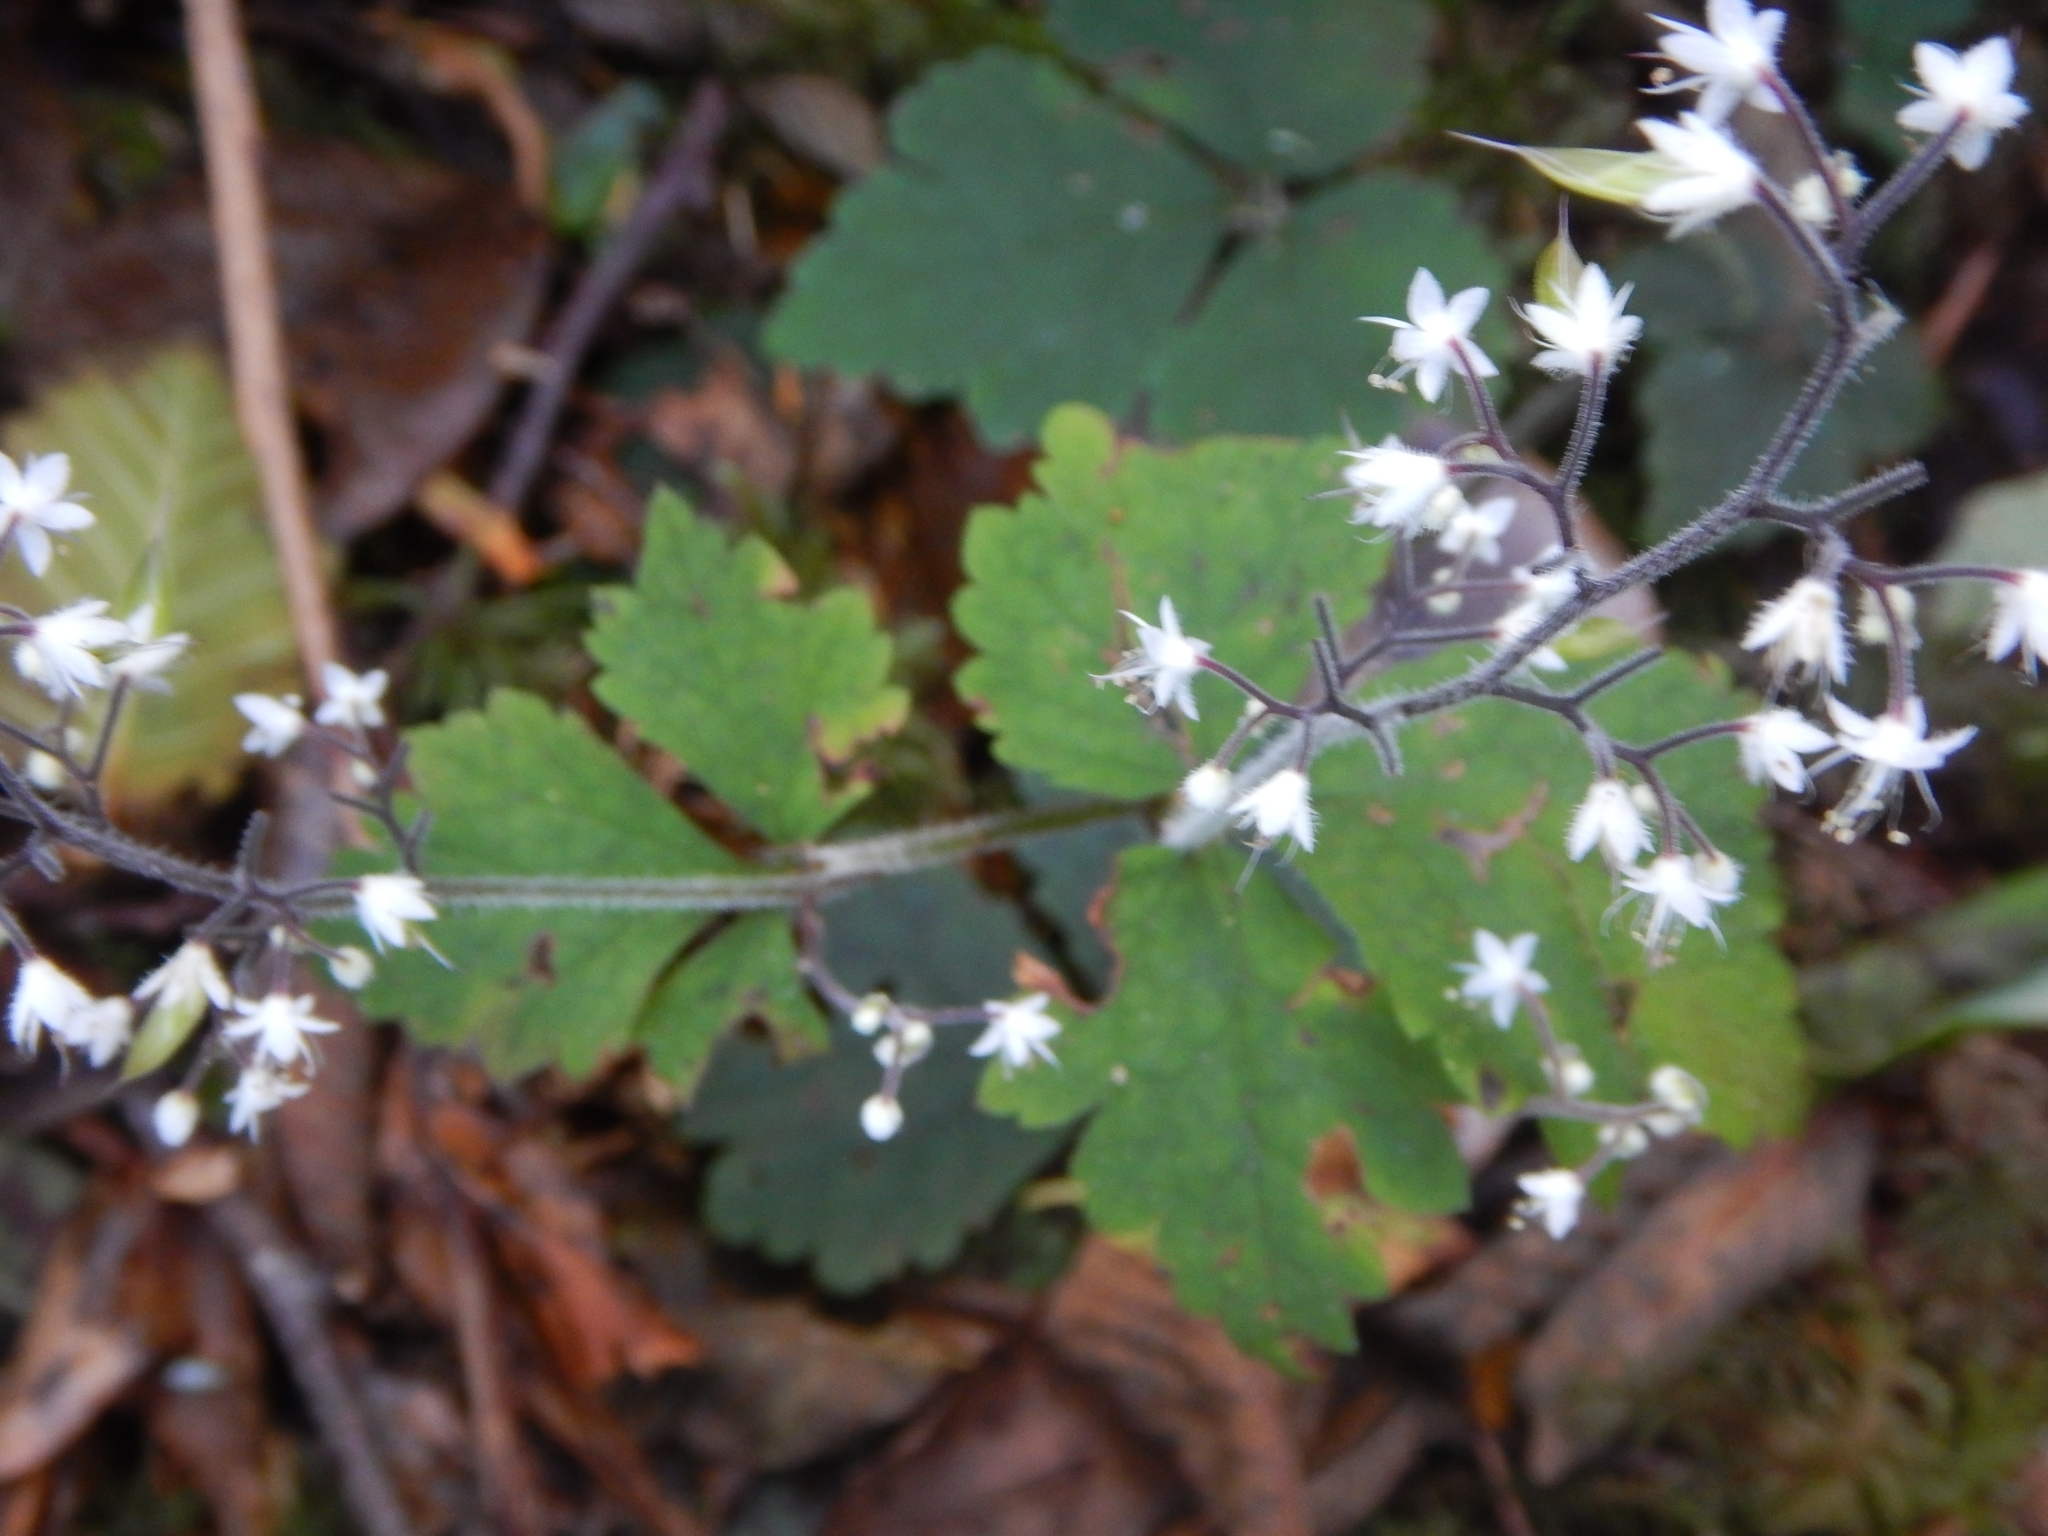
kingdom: Plantae
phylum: Tracheophyta
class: Magnoliopsida
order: Saxifragales
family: Saxifragaceae
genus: Tiarella
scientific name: Tiarella trifoliata
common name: Sugar-scoop
